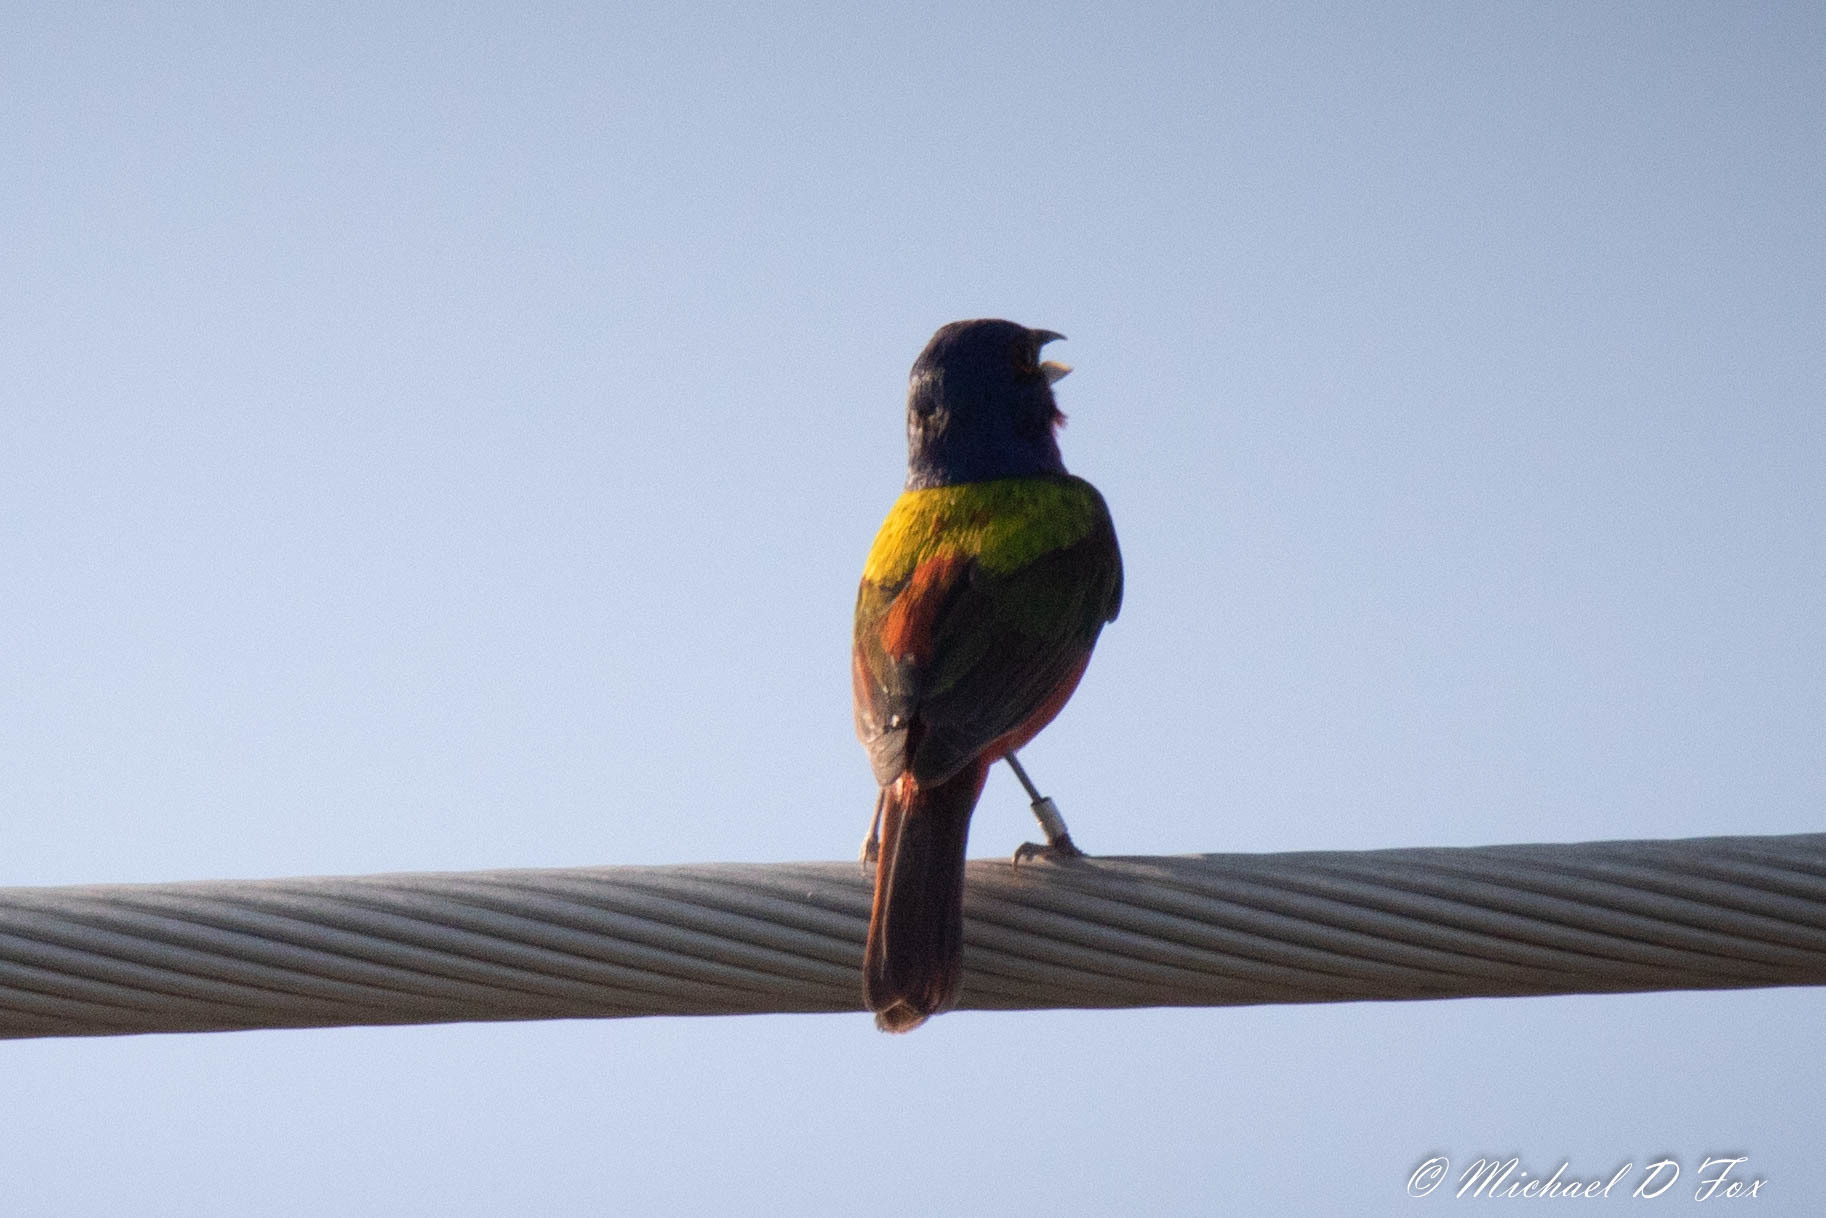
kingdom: Animalia
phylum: Chordata
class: Aves
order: Passeriformes
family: Cardinalidae
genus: Passerina
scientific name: Passerina ciris
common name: Painted bunting
